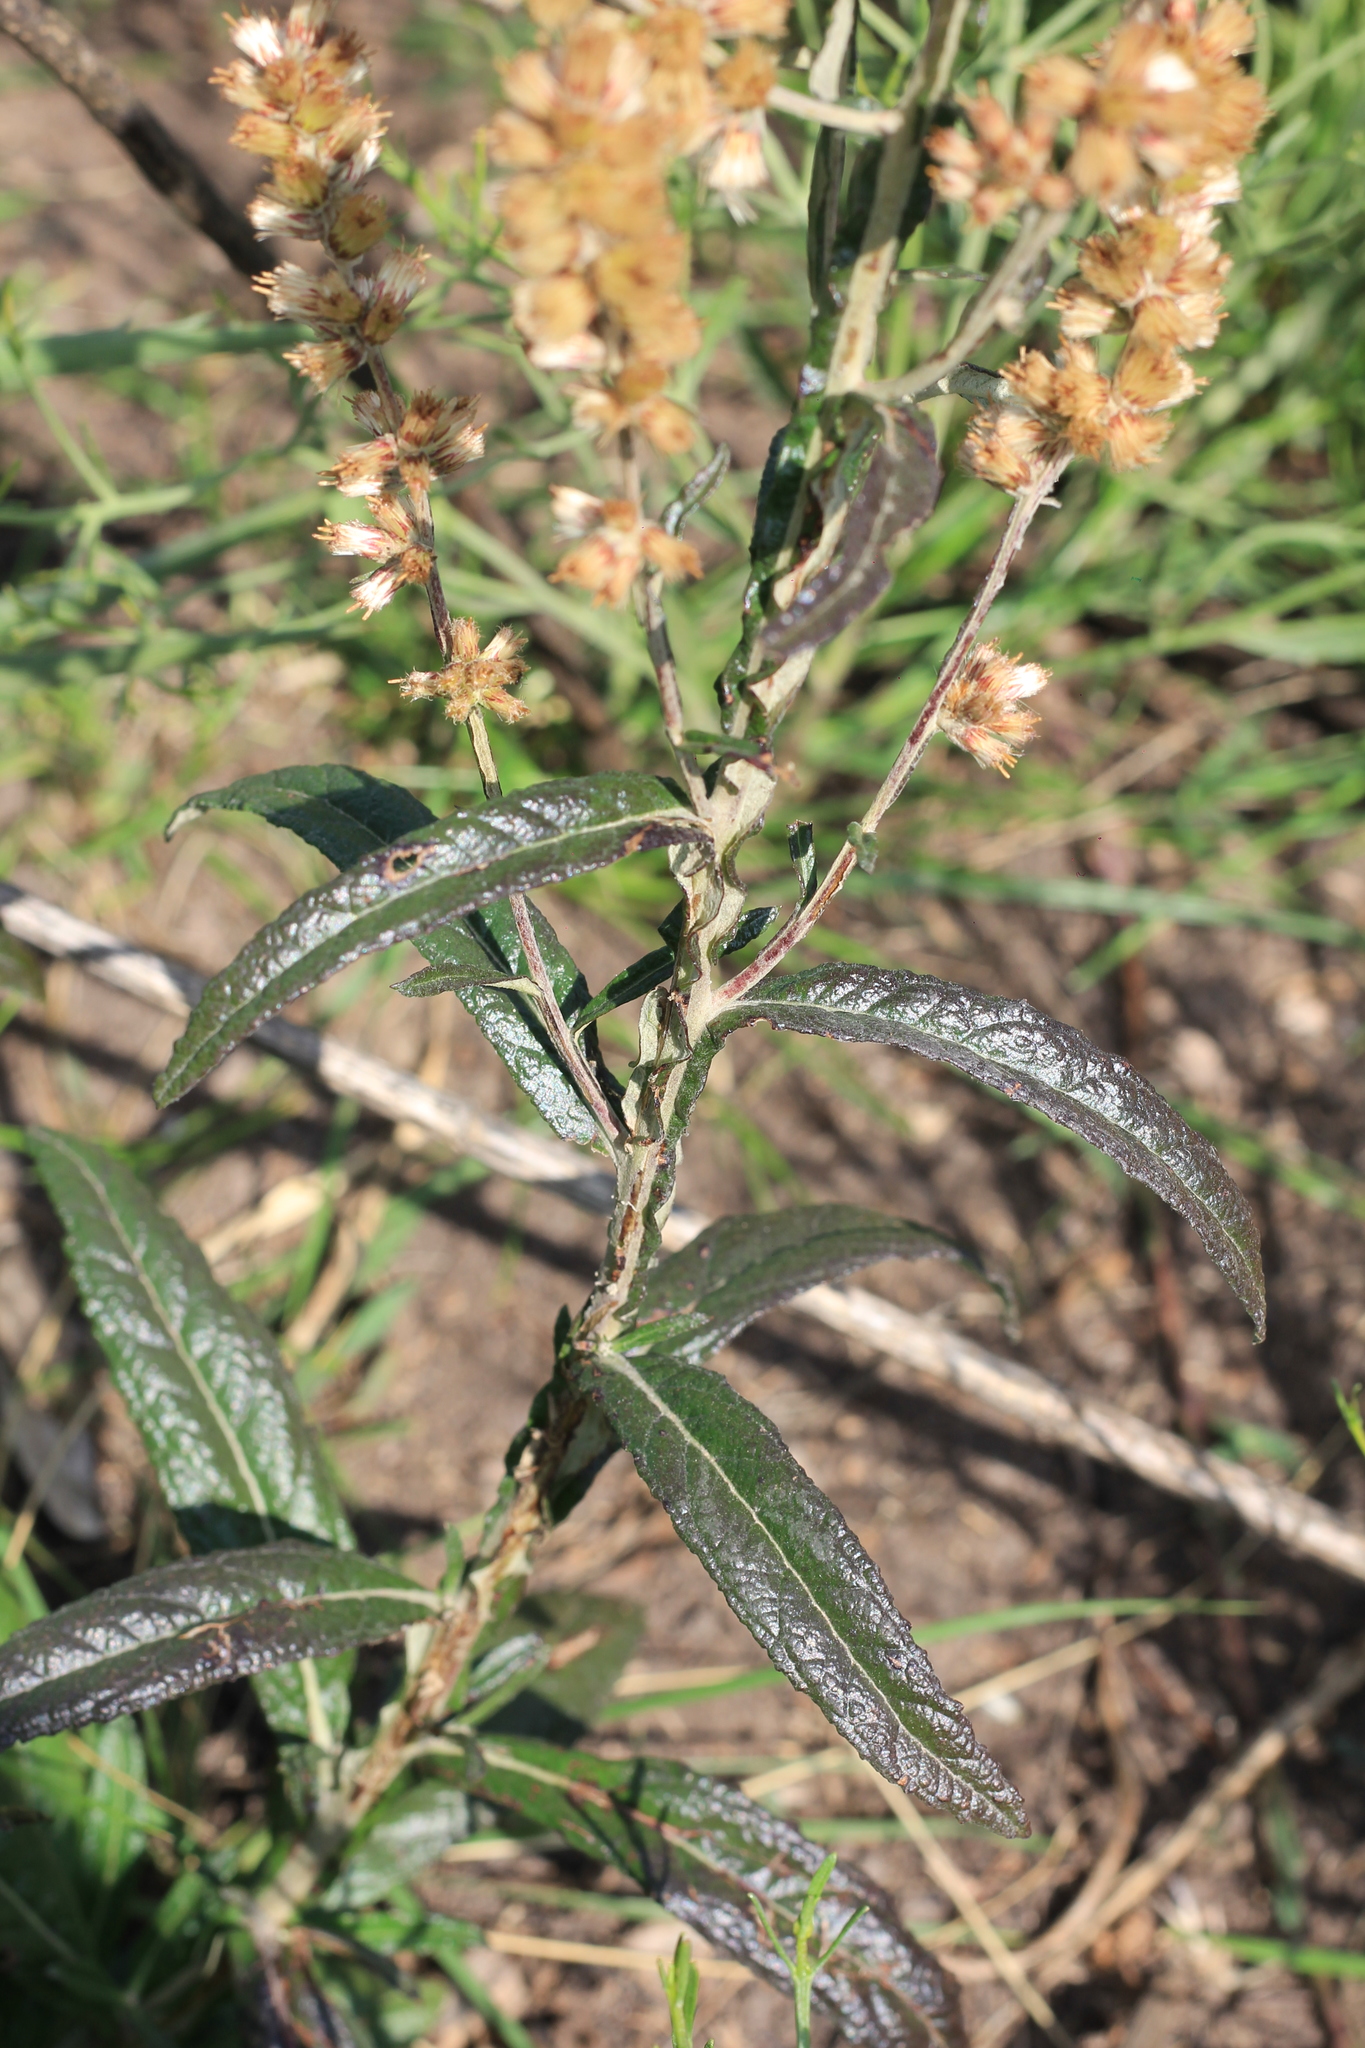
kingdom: Plantae
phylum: Tracheophyta
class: Magnoliopsida
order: Asterales
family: Asteraceae
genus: Pterocaulon
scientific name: Pterocaulon cordobense
